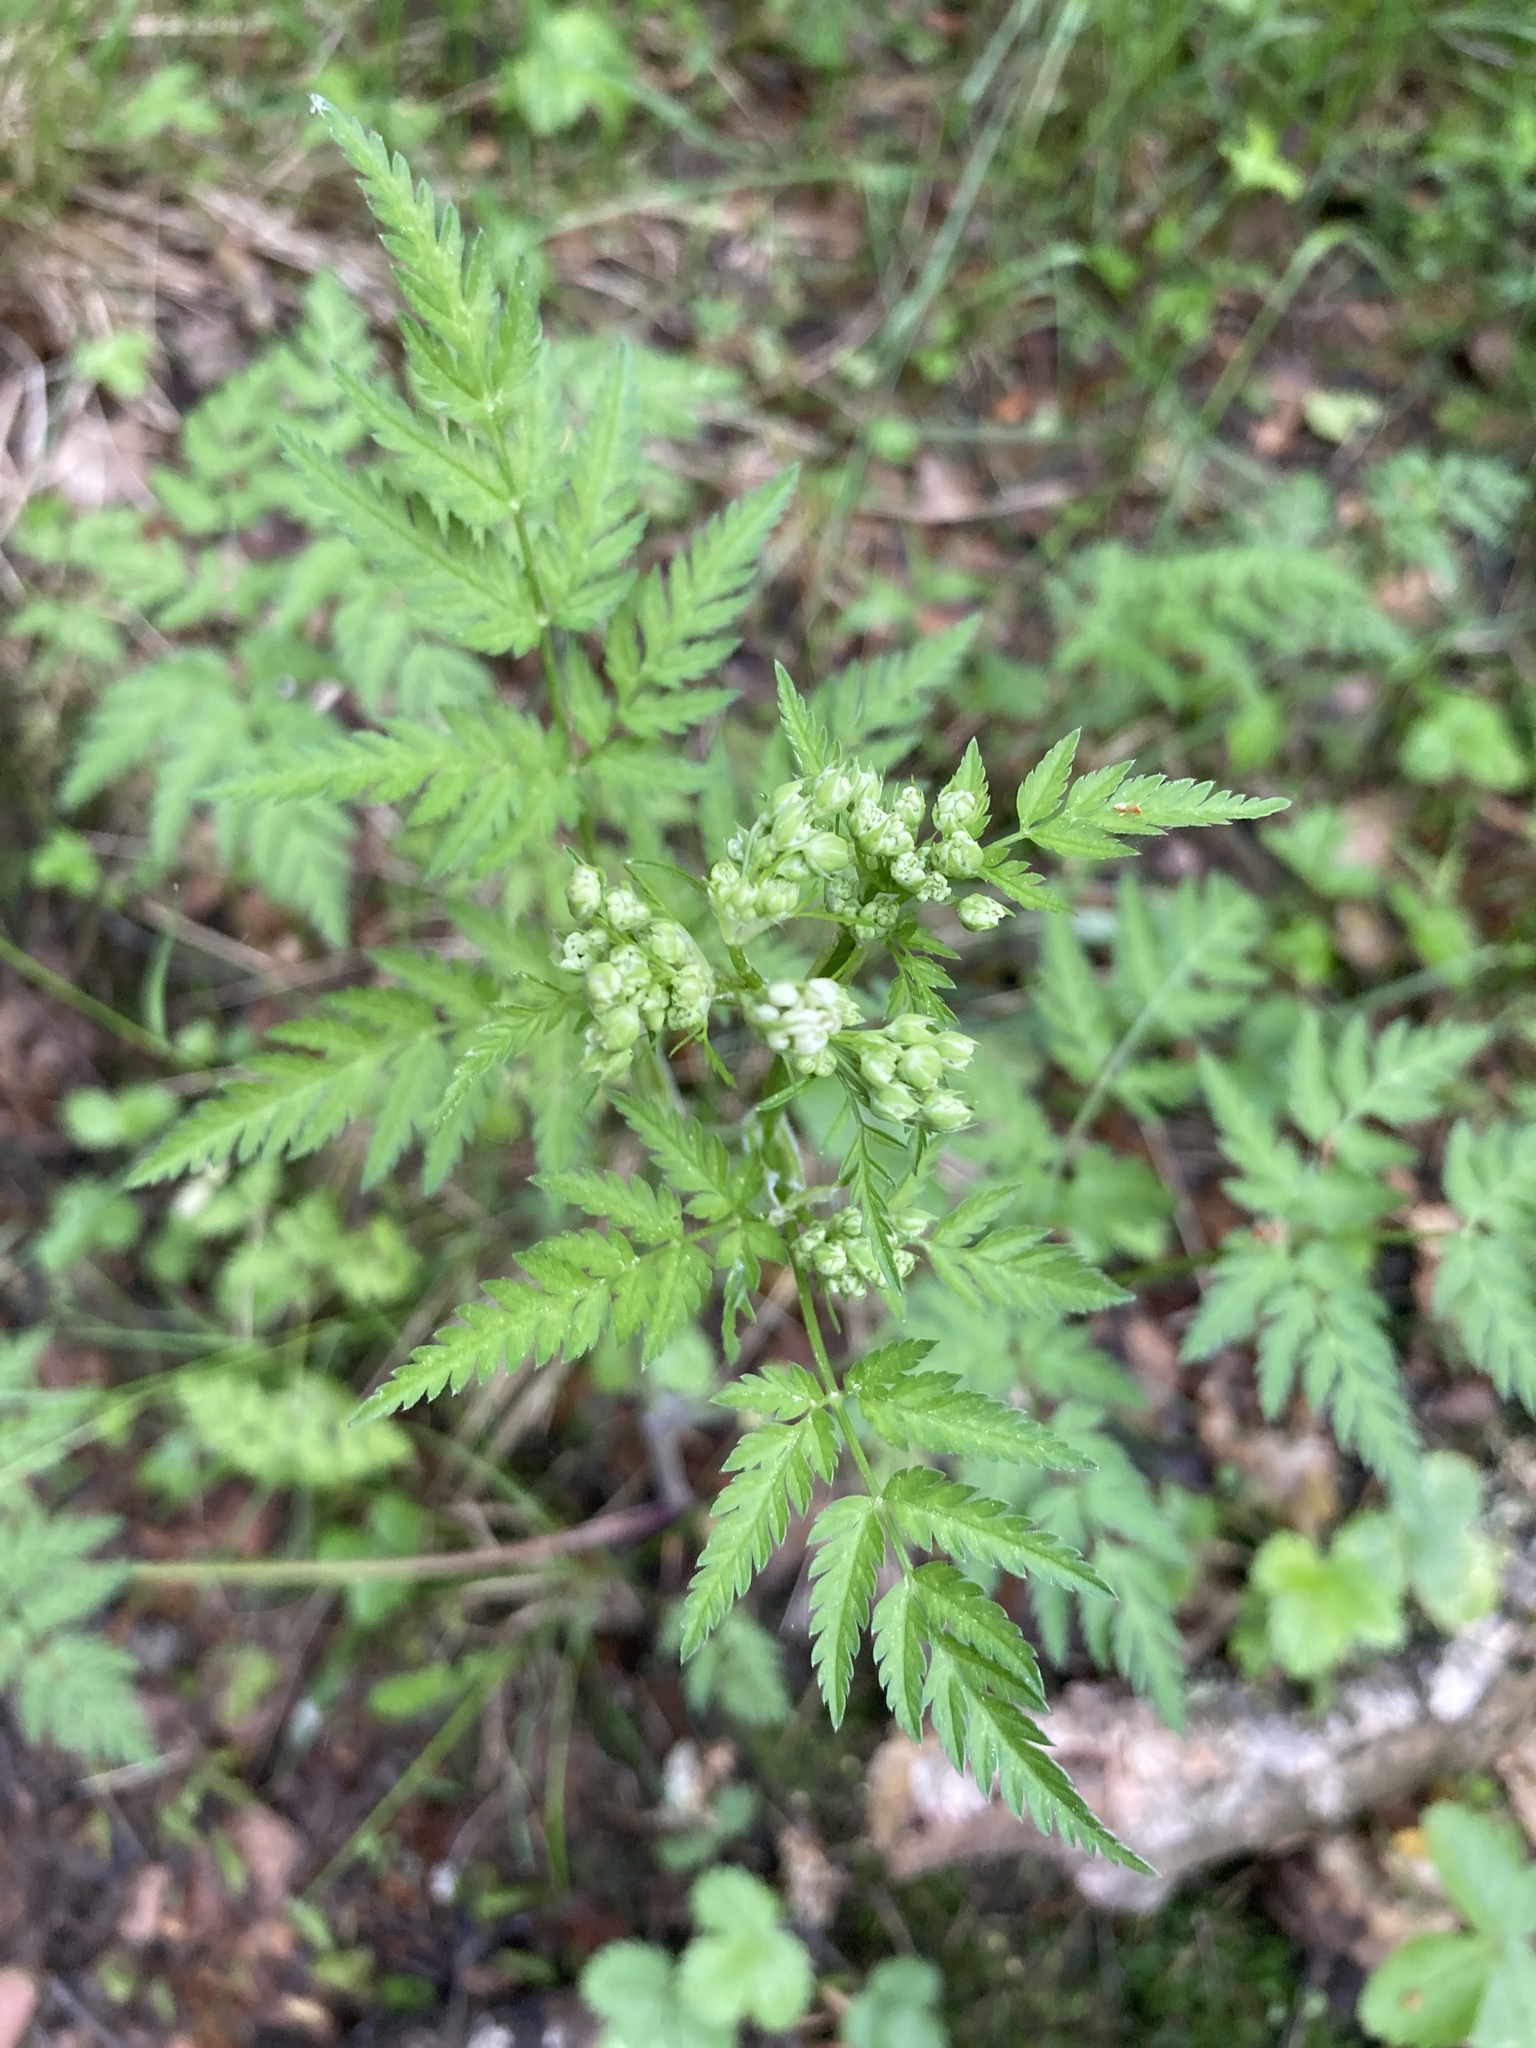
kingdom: Plantae
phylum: Tracheophyta
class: Magnoliopsida
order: Apiales
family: Apiaceae
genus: Anthriscus
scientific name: Anthriscus sylvestris
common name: Cow parsley
